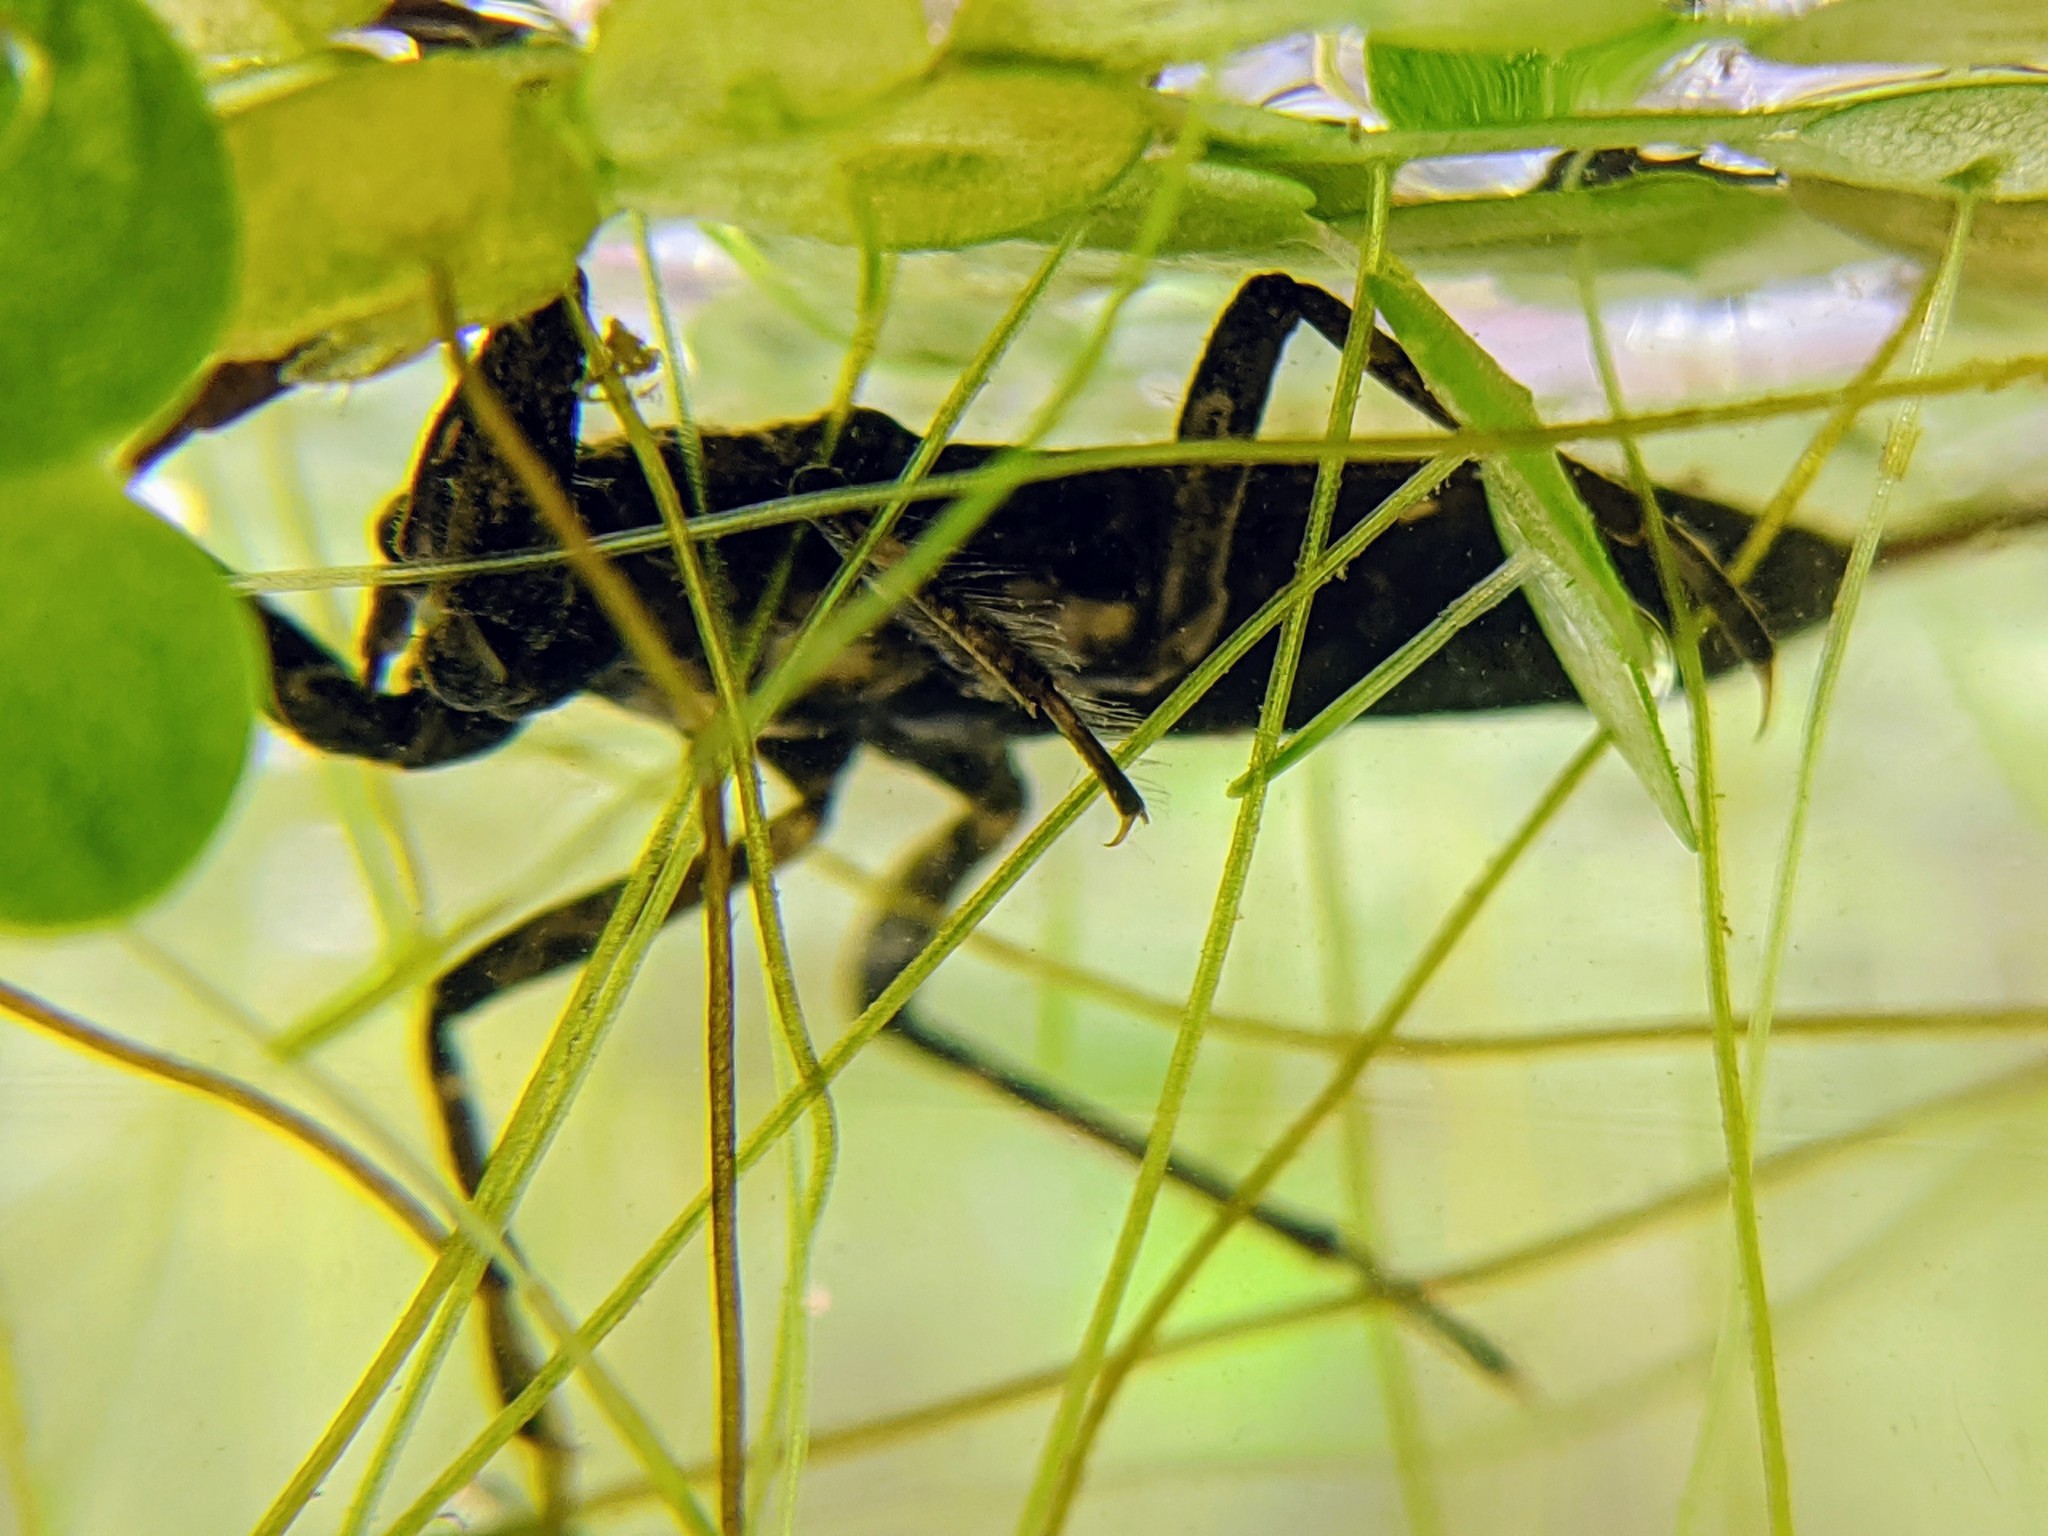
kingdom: Animalia
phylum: Arthropoda
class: Insecta
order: Hemiptera
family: Nepidae
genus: Nepa
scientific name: Nepa cinerea
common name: Water scorpion
